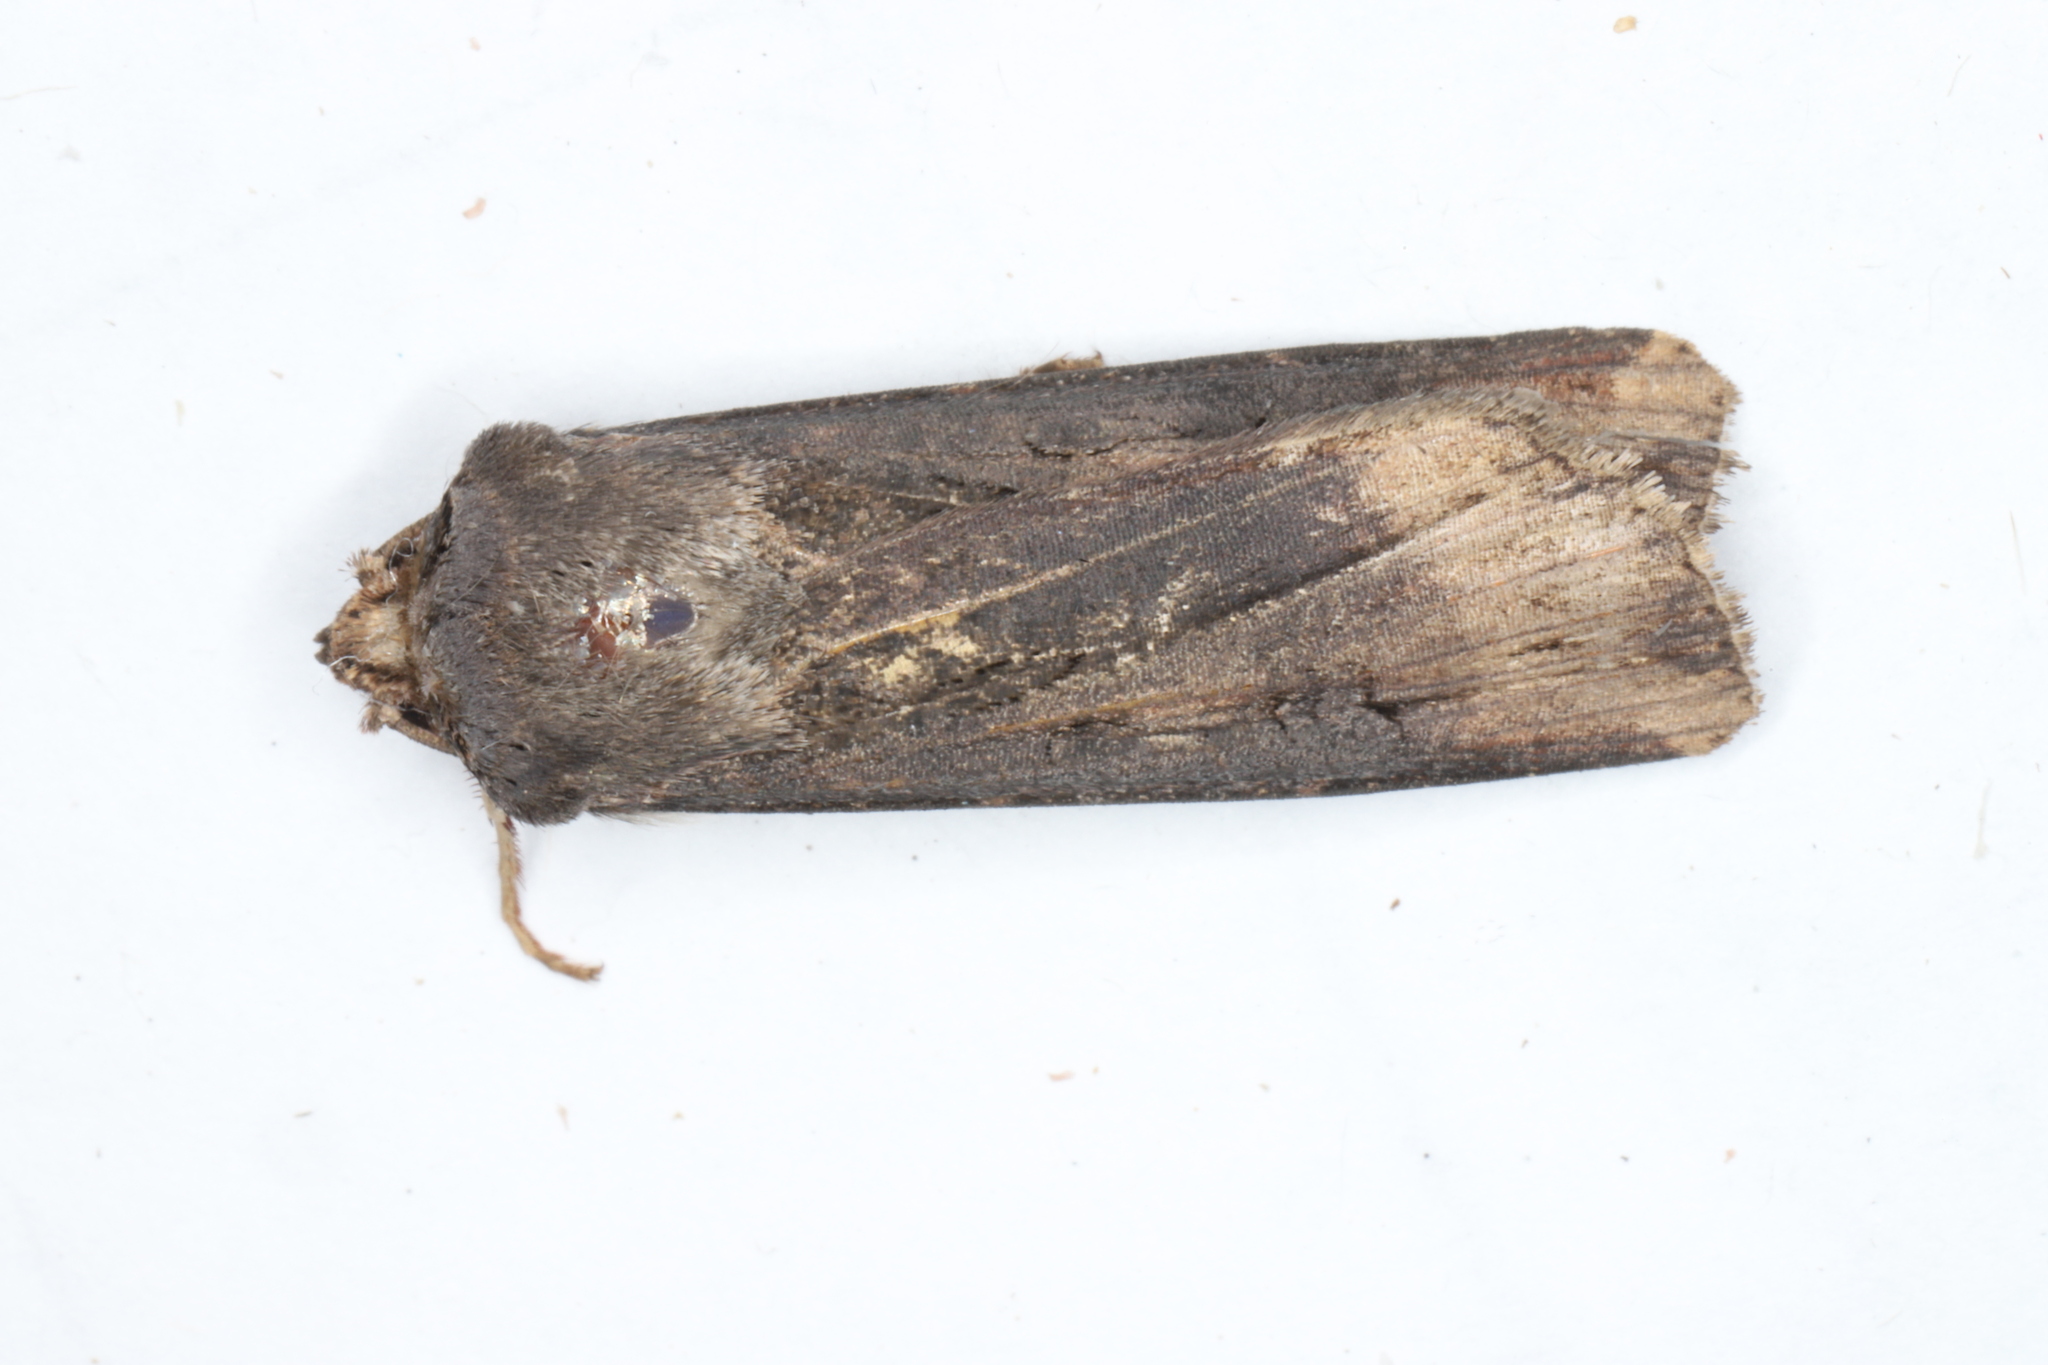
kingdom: Animalia
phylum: Arthropoda
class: Insecta
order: Lepidoptera
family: Noctuidae
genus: Agrotis
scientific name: Agrotis ipsilon
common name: Dark sword-grass
